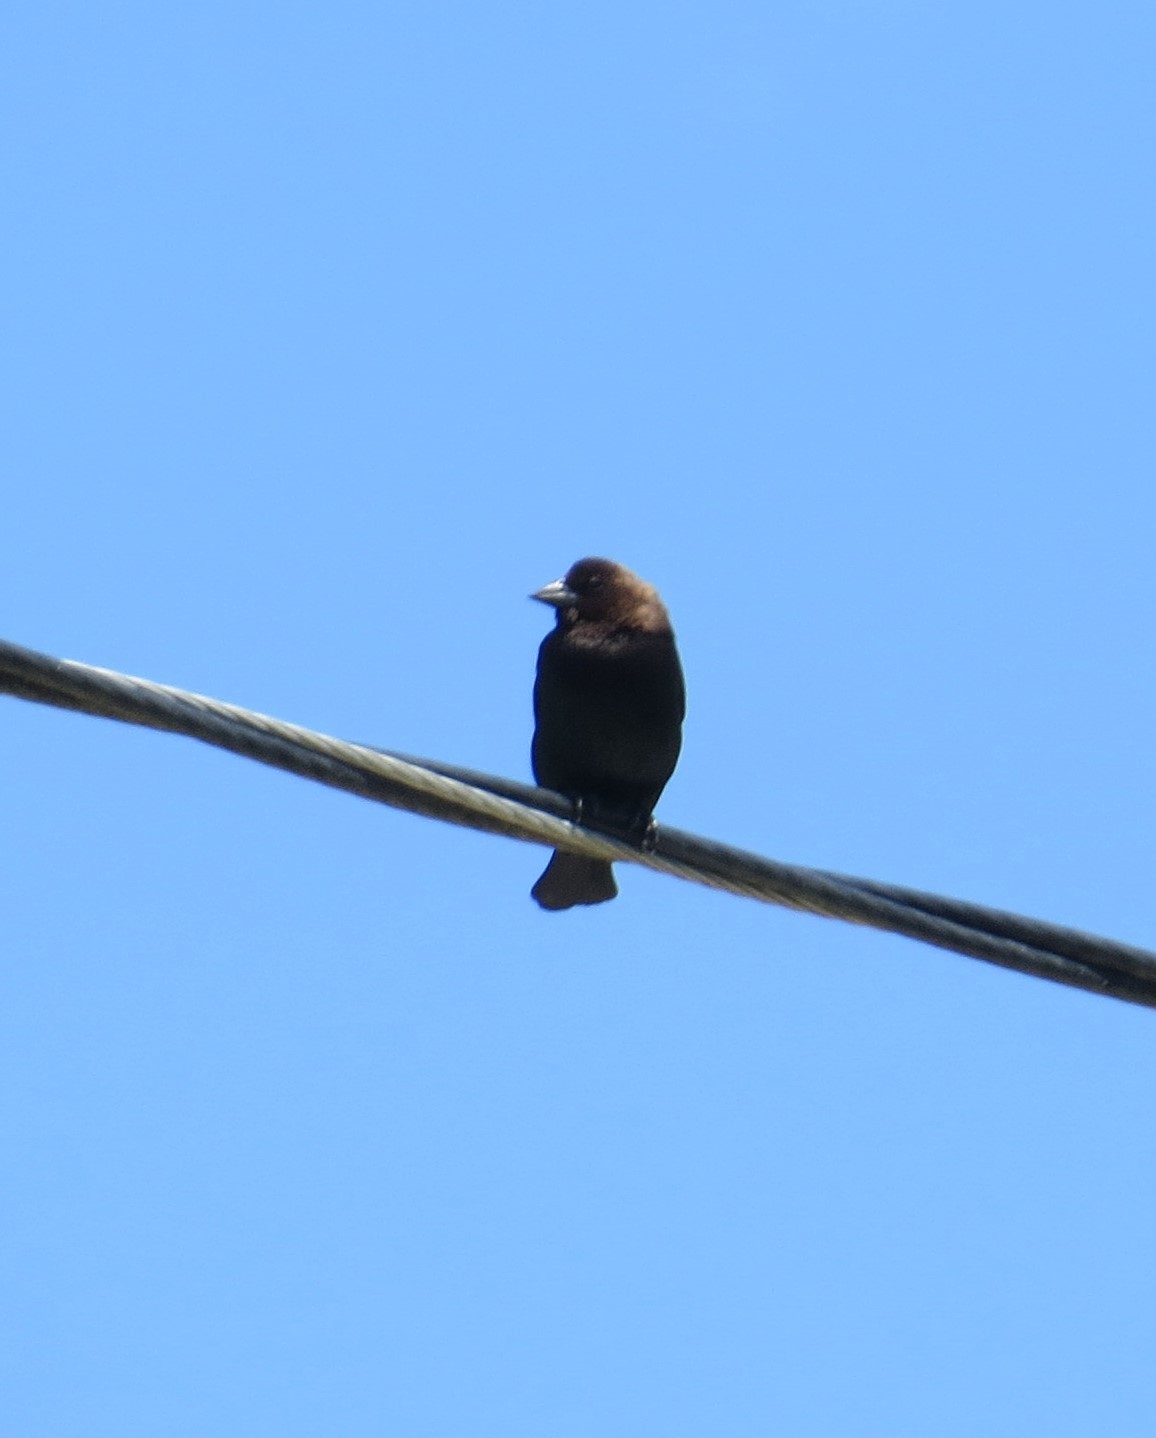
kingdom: Animalia
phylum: Chordata
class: Aves
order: Passeriformes
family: Icteridae
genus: Molothrus
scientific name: Molothrus ater
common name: Brown-headed cowbird
